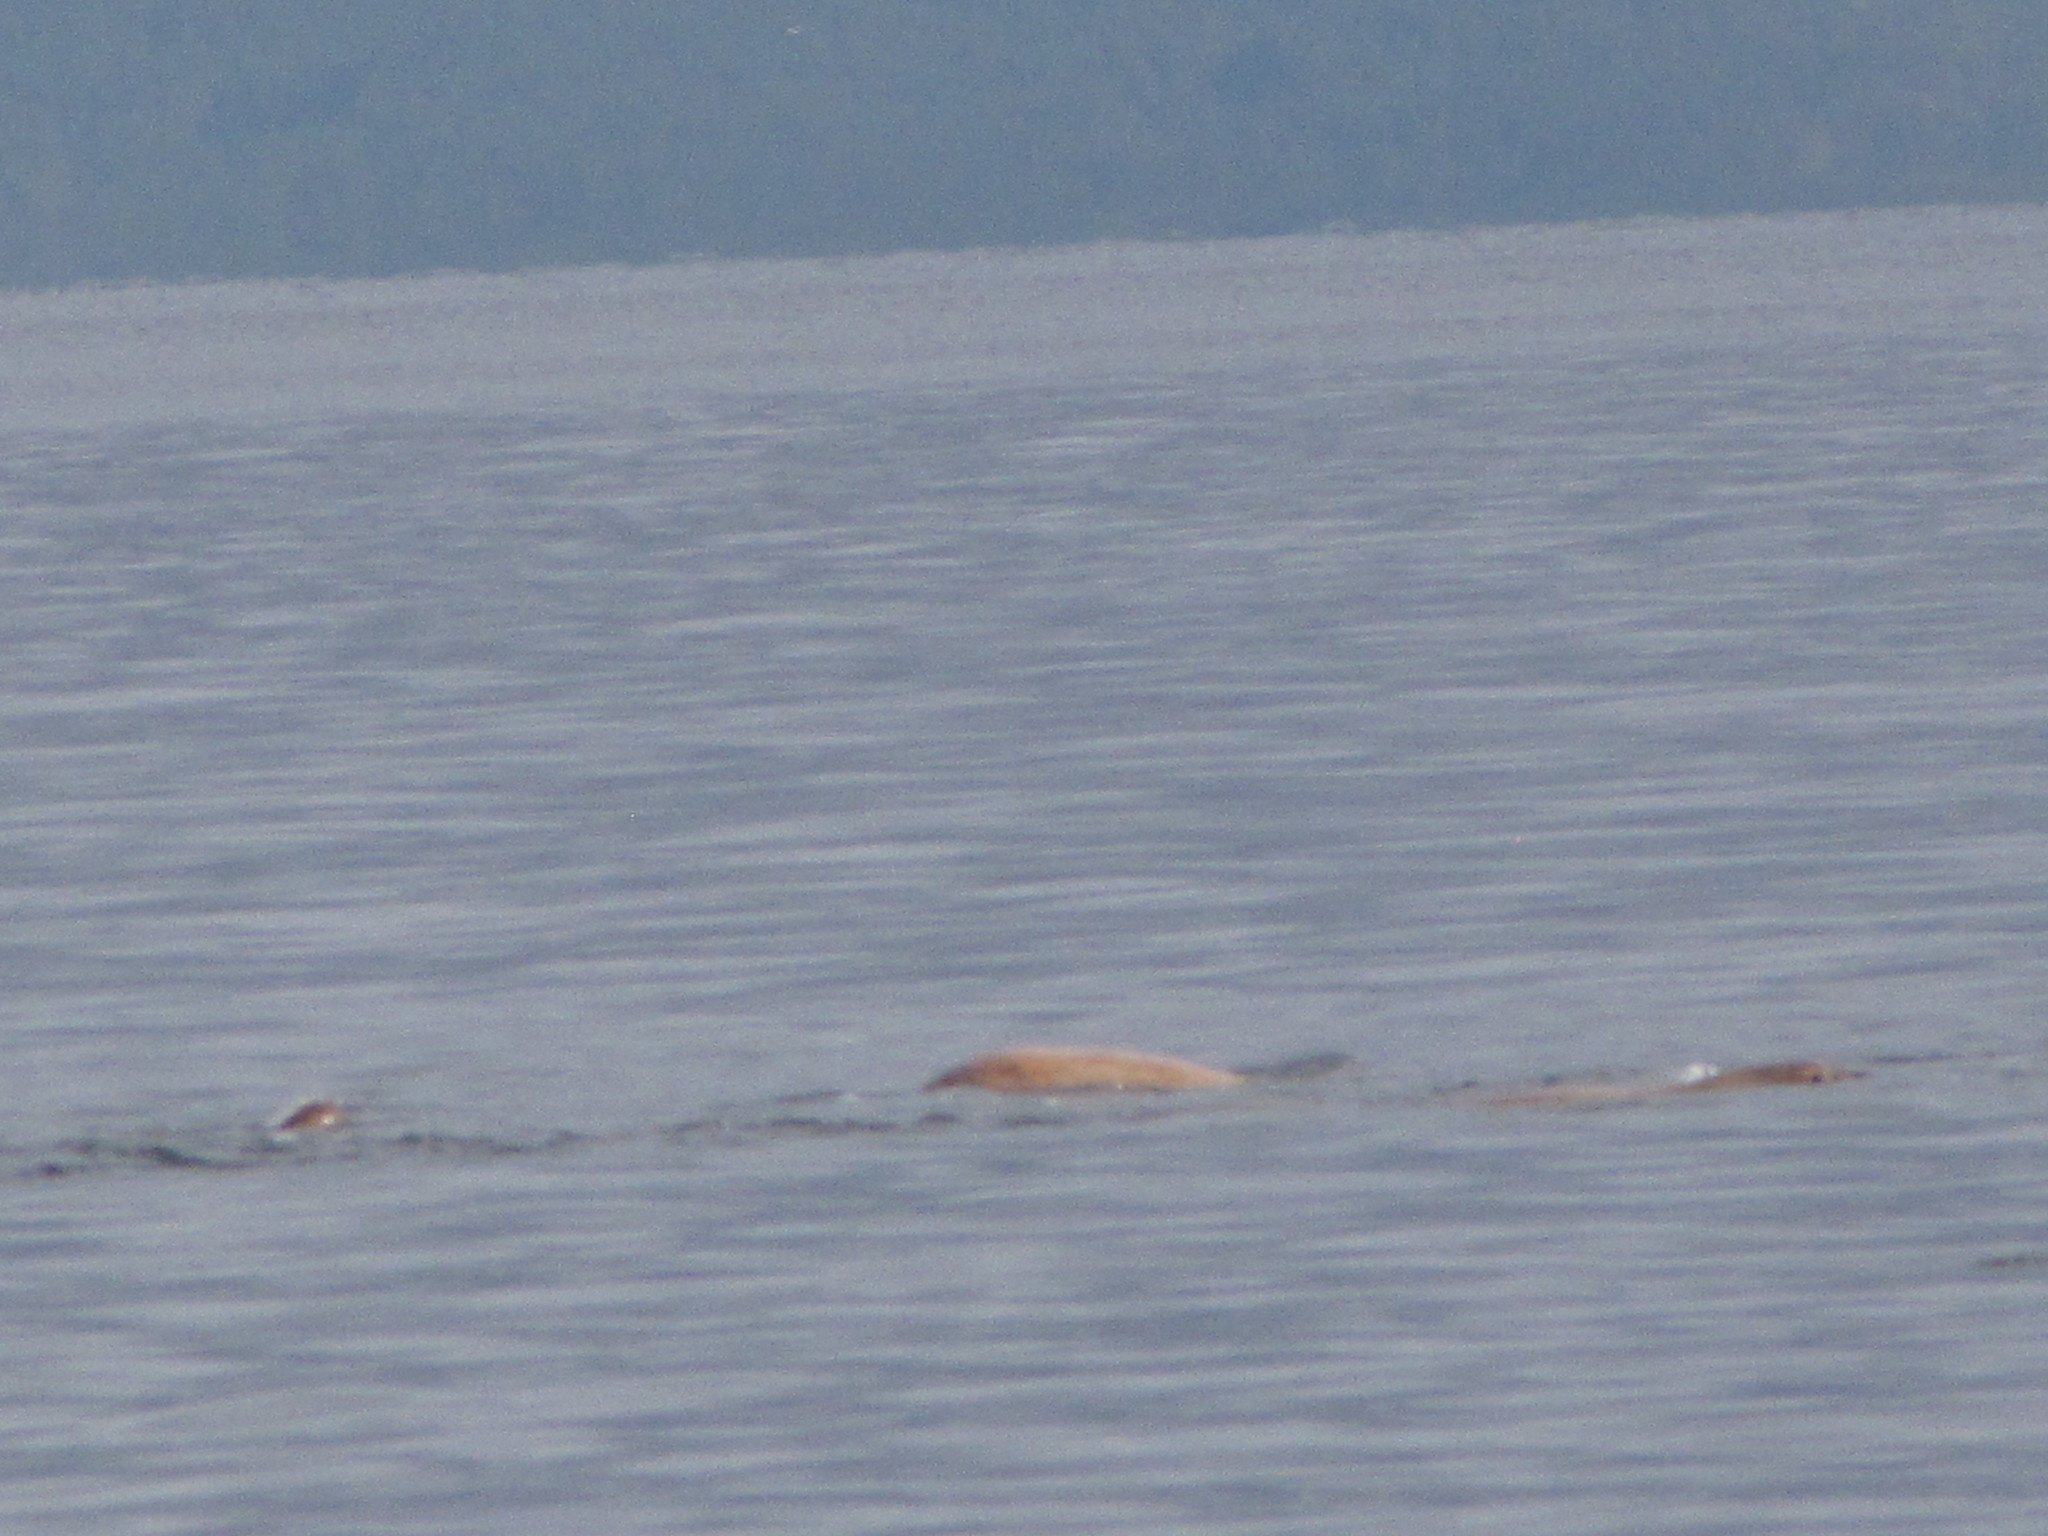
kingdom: Animalia
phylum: Chordata
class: Mammalia
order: Carnivora
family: Otariidae
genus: Eumetopias
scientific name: Eumetopias jubatus
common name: Steller sea lion
